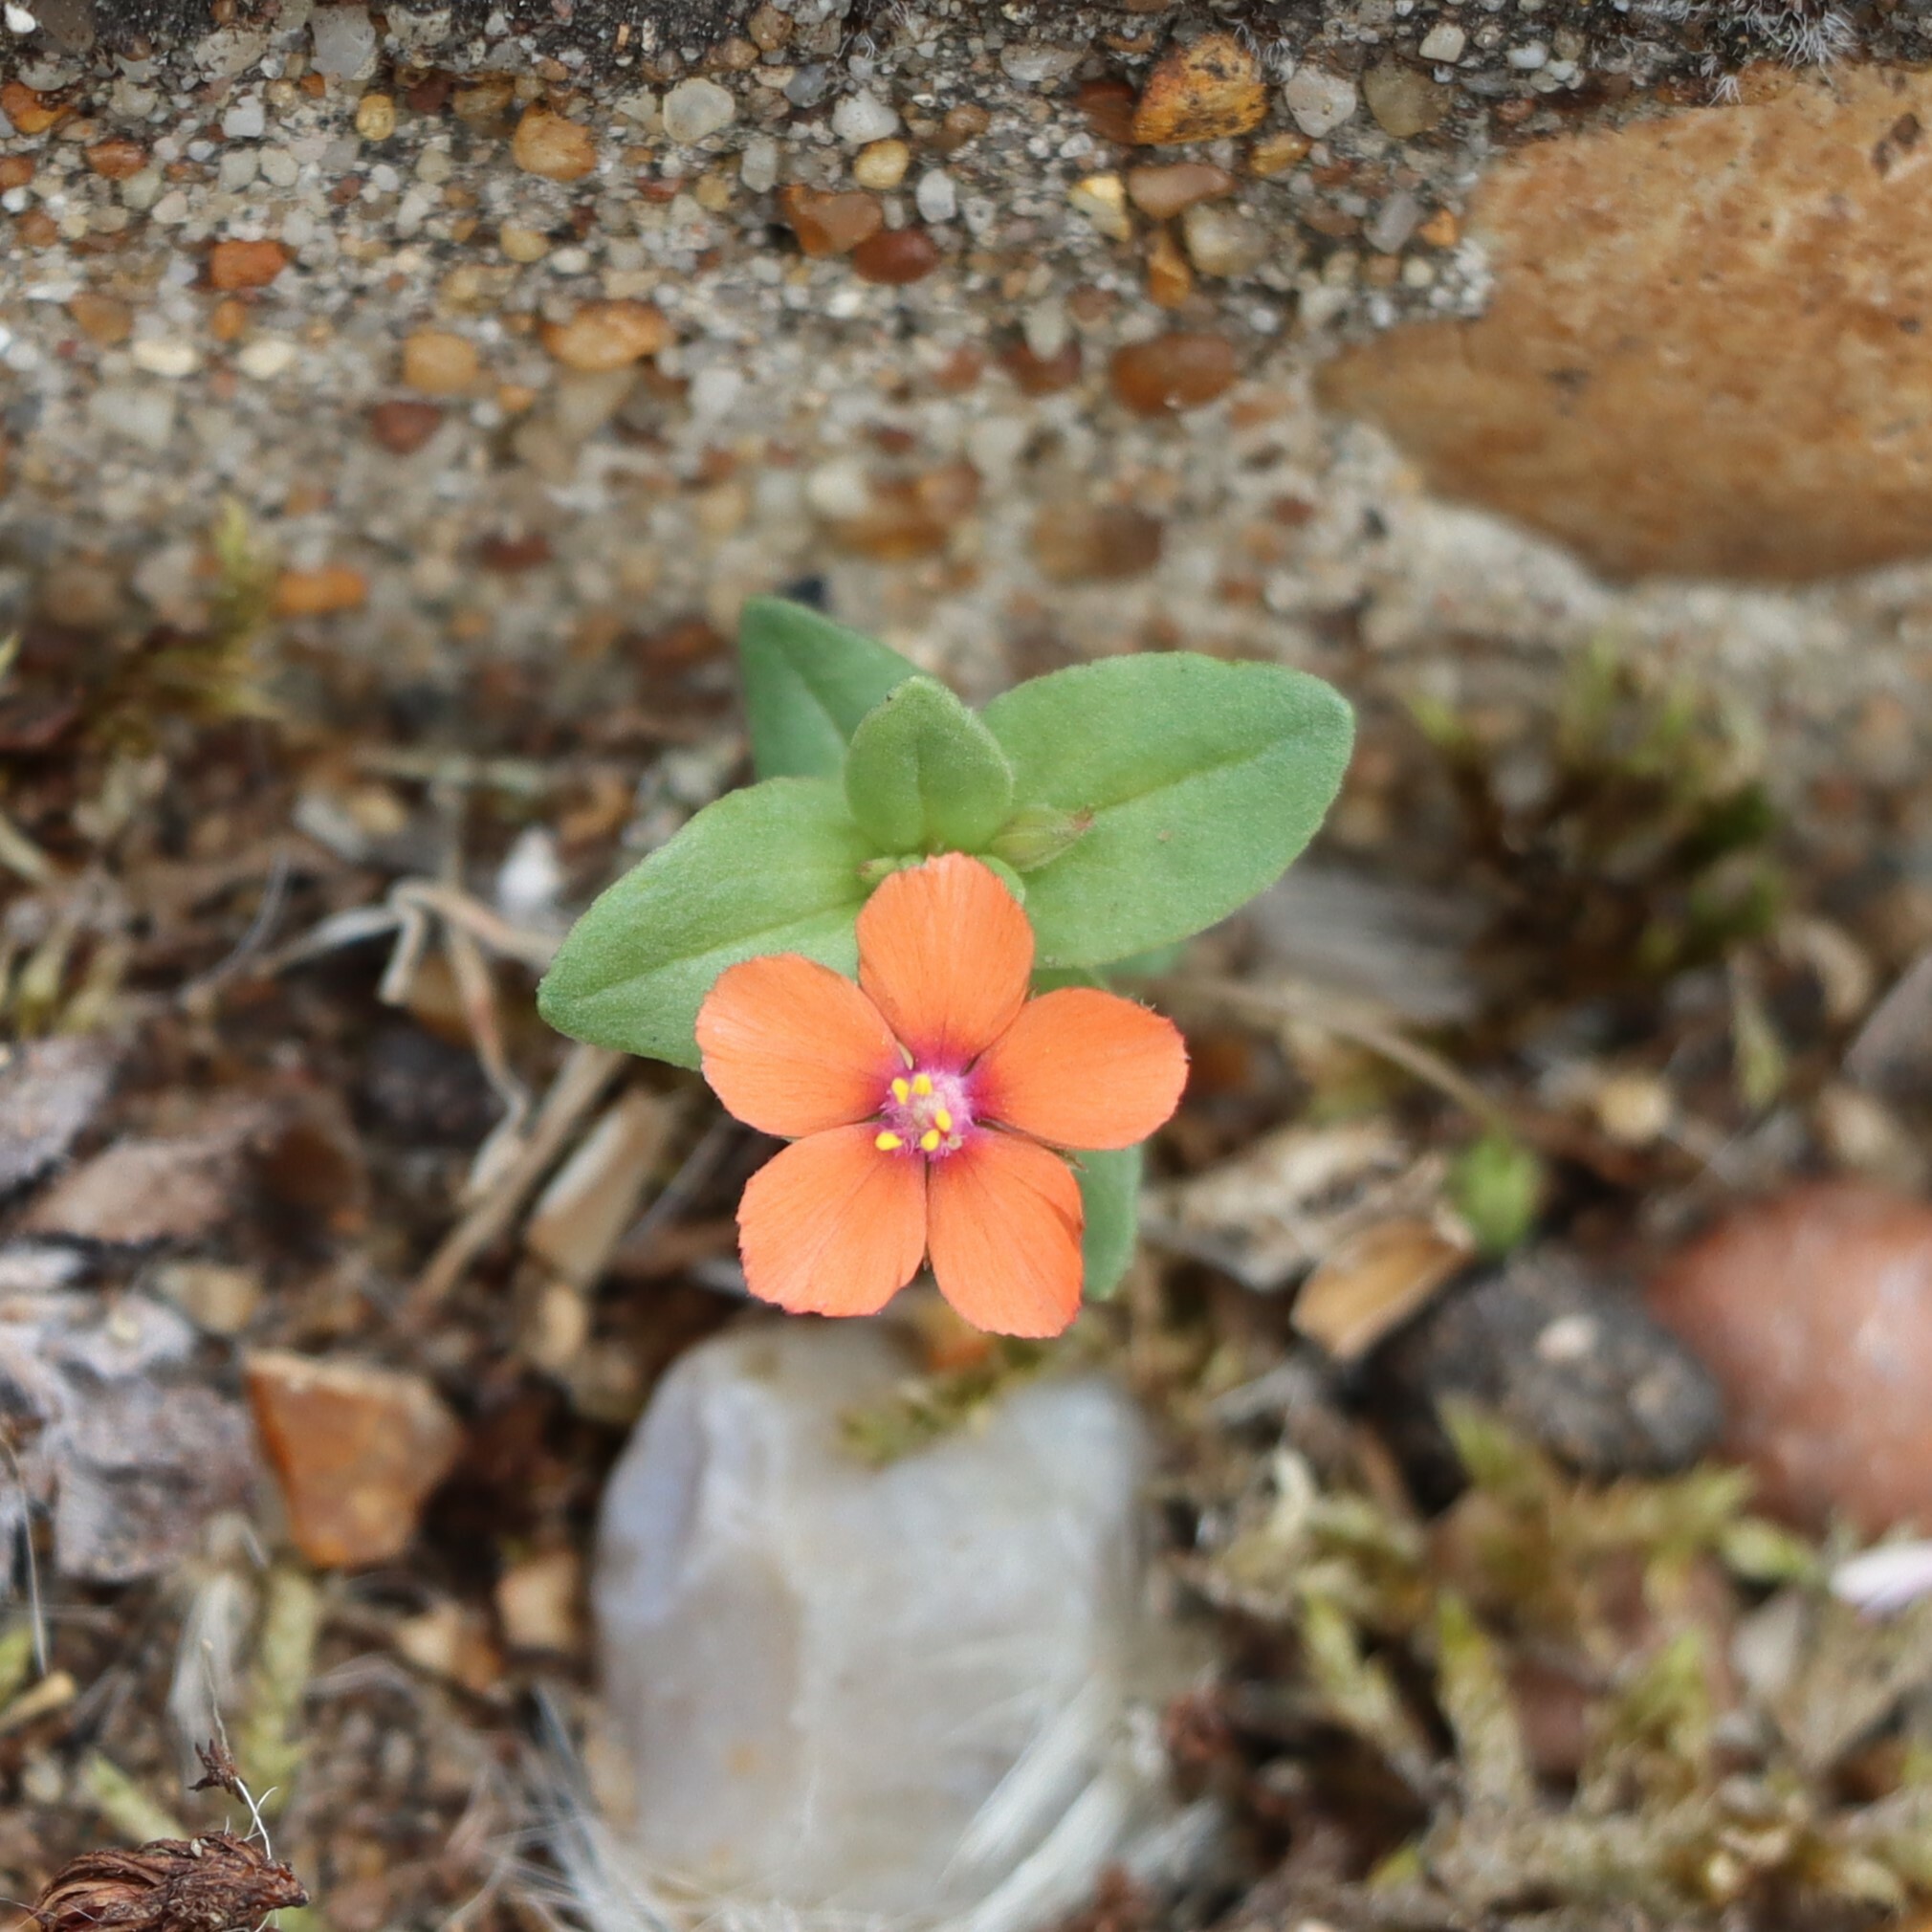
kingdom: Plantae
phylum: Tracheophyta
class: Magnoliopsida
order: Ericales
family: Primulaceae
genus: Lysimachia
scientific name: Lysimachia arvensis
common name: Scarlet pimpernel
